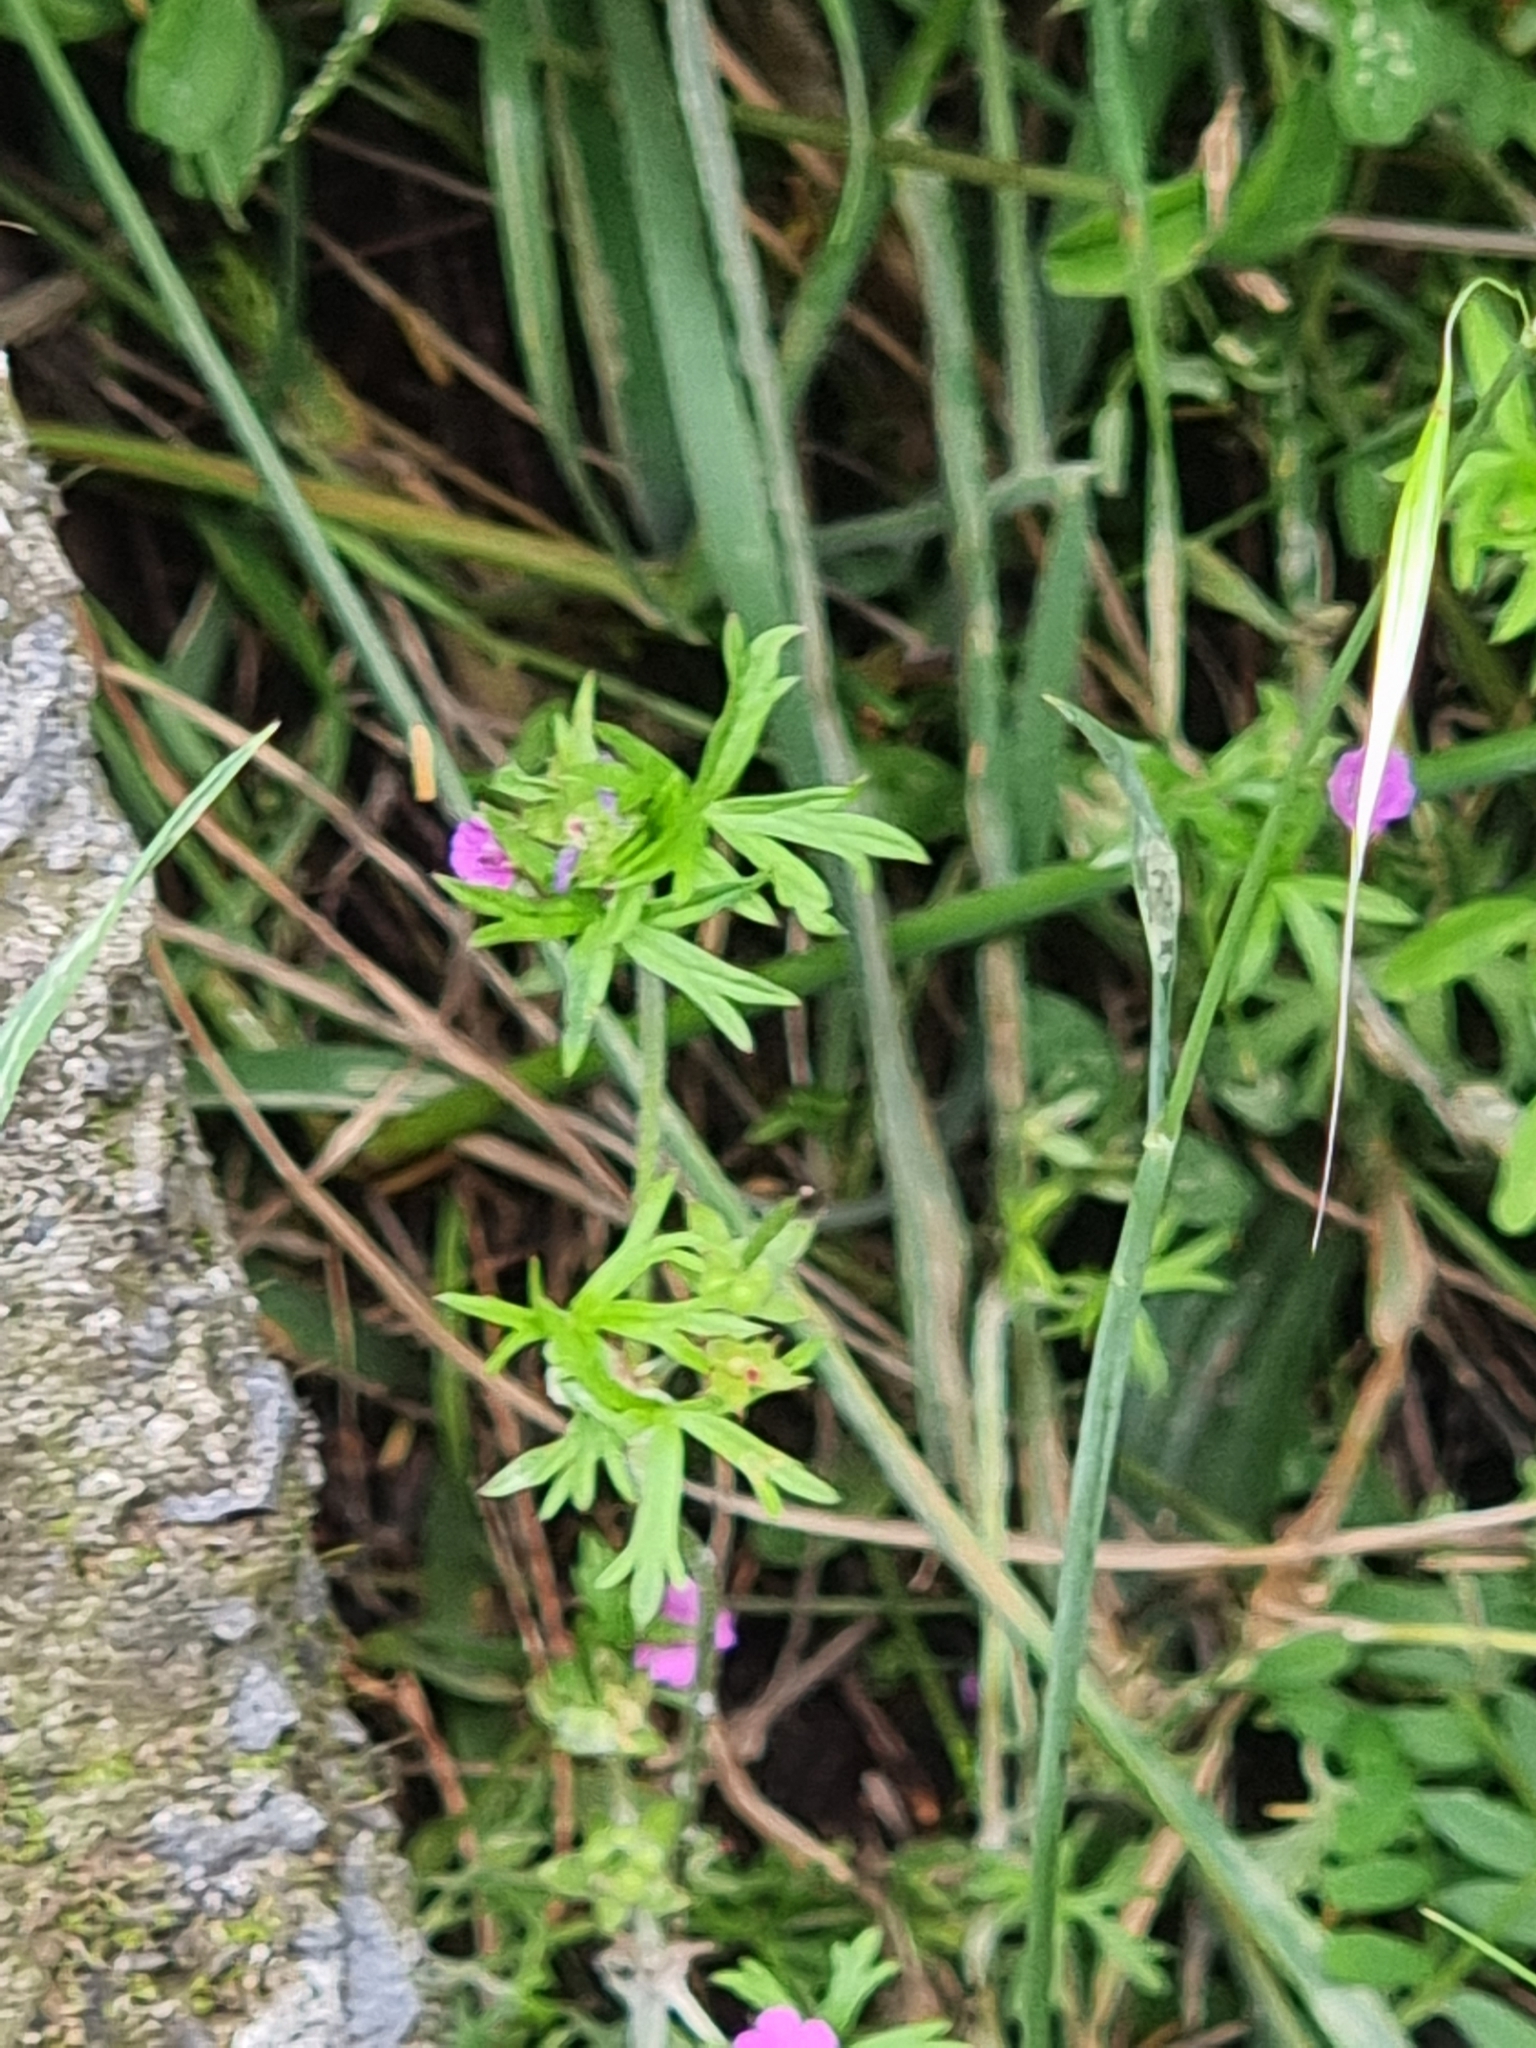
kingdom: Plantae
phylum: Tracheophyta
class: Magnoliopsida
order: Geraniales
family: Geraniaceae
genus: Geranium
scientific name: Geranium dissectum
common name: Cut-leaved crane's-bill
